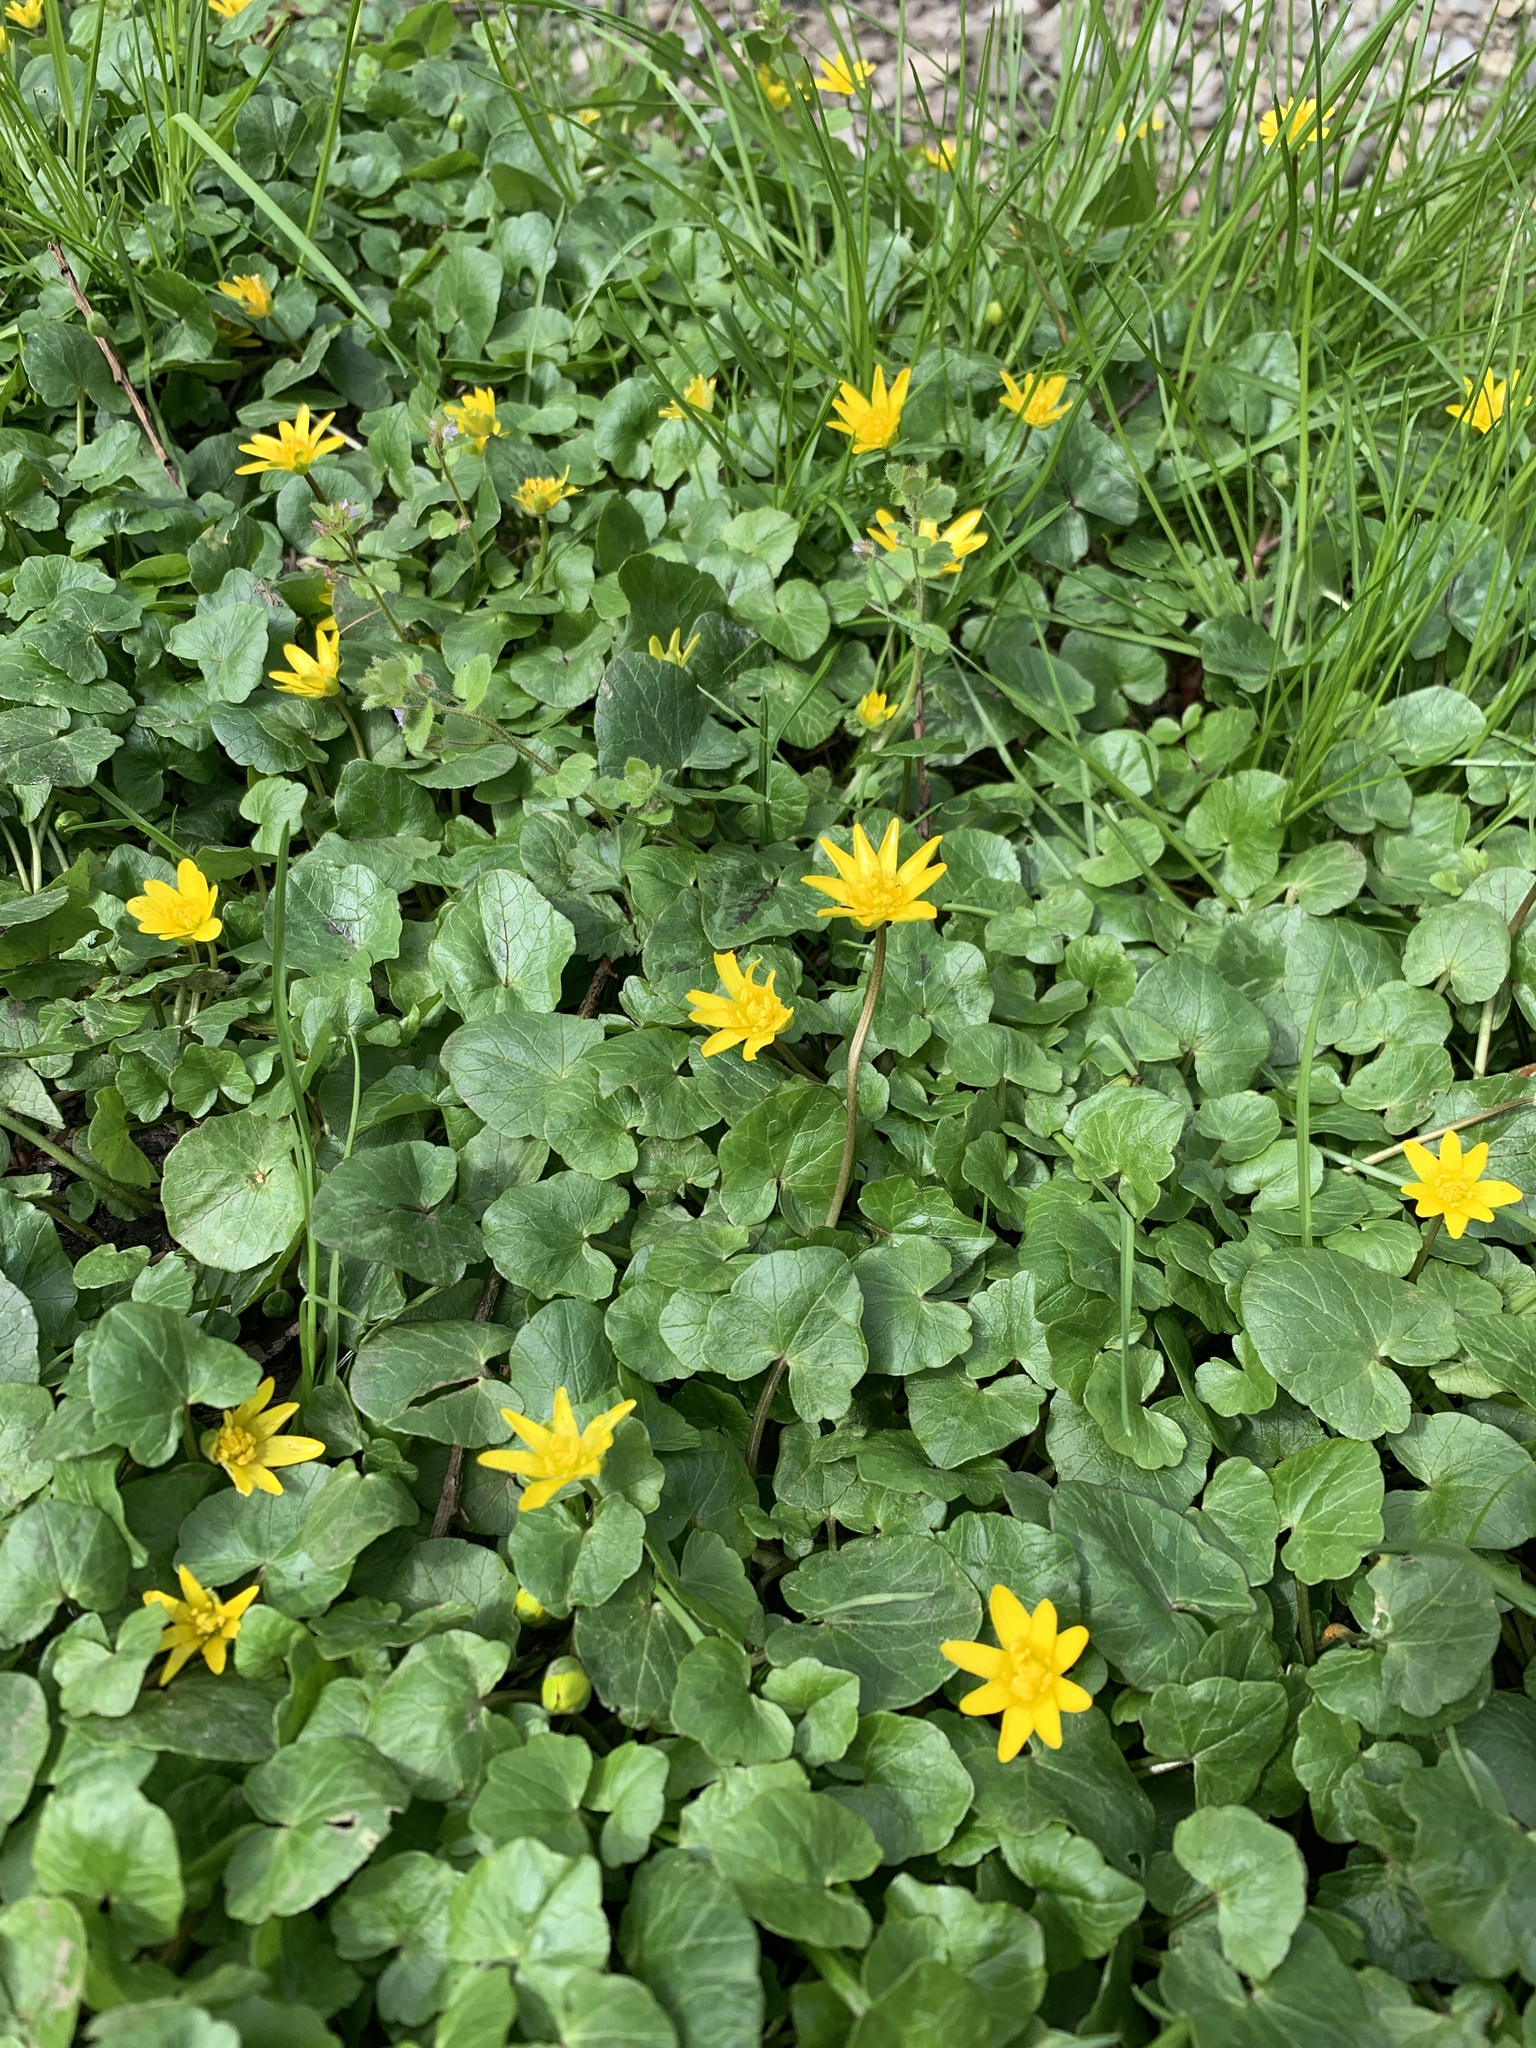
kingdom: Plantae
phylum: Tracheophyta
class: Magnoliopsida
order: Ranunculales
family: Ranunculaceae
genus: Ficaria
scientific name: Ficaria verna
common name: Lesser celandine
